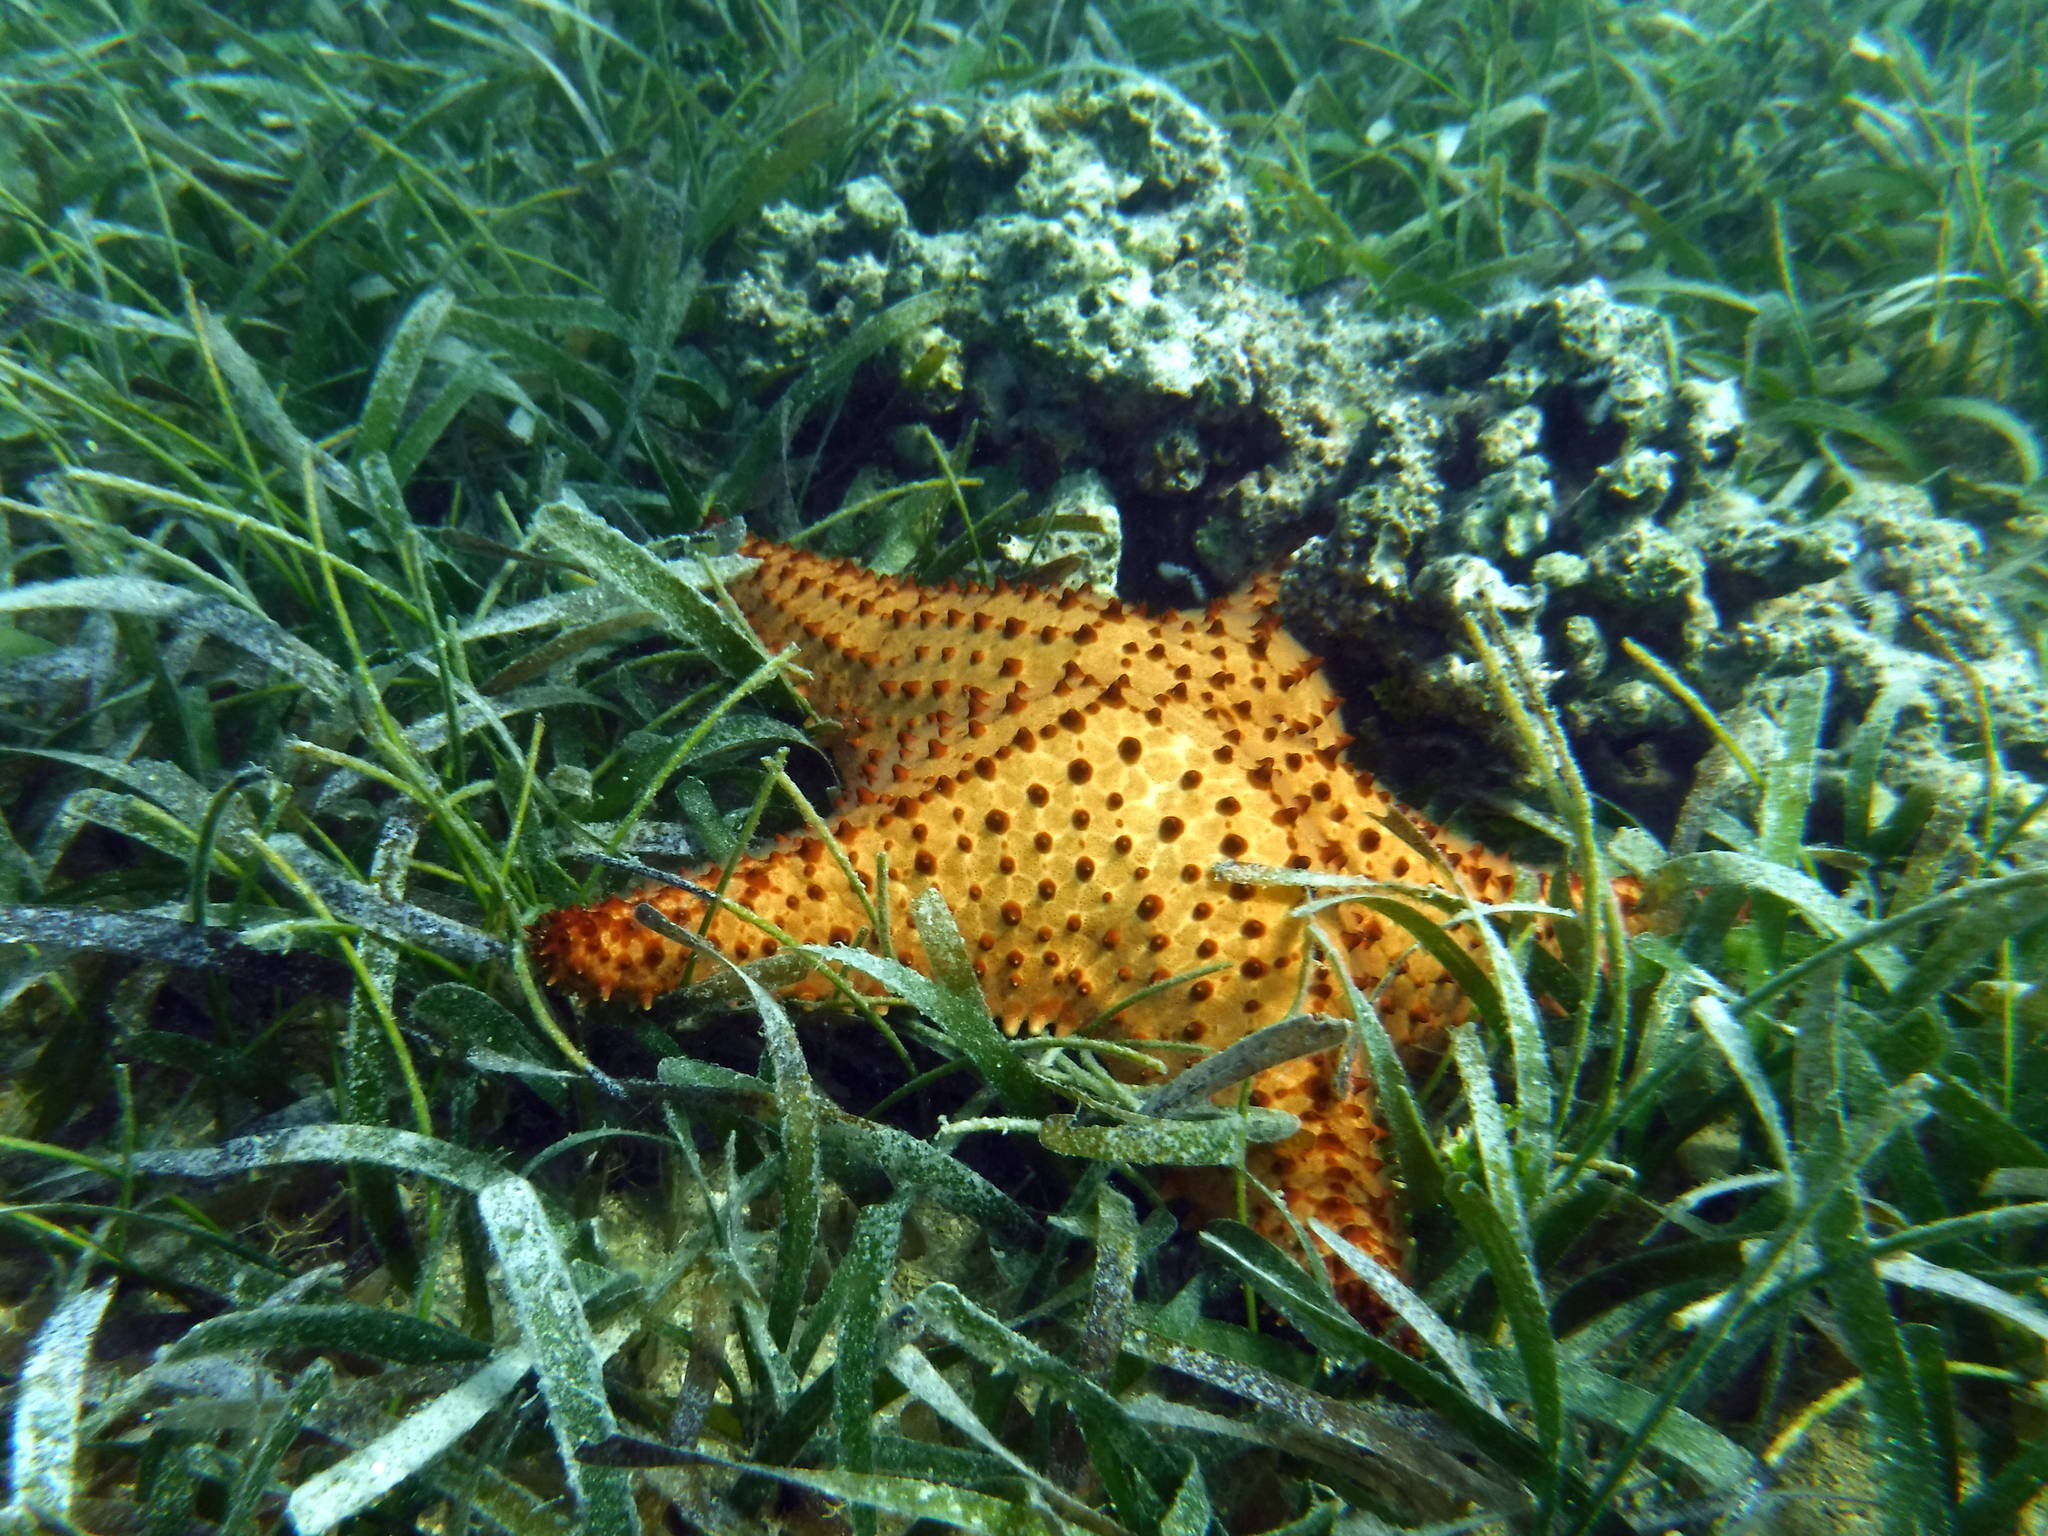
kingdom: Animalia
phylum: Echinodermata
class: Asteroidea
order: Valvatida
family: Oreasteridae
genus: Oreaster
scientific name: Oreaster reticulatus
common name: Cushion sea star
